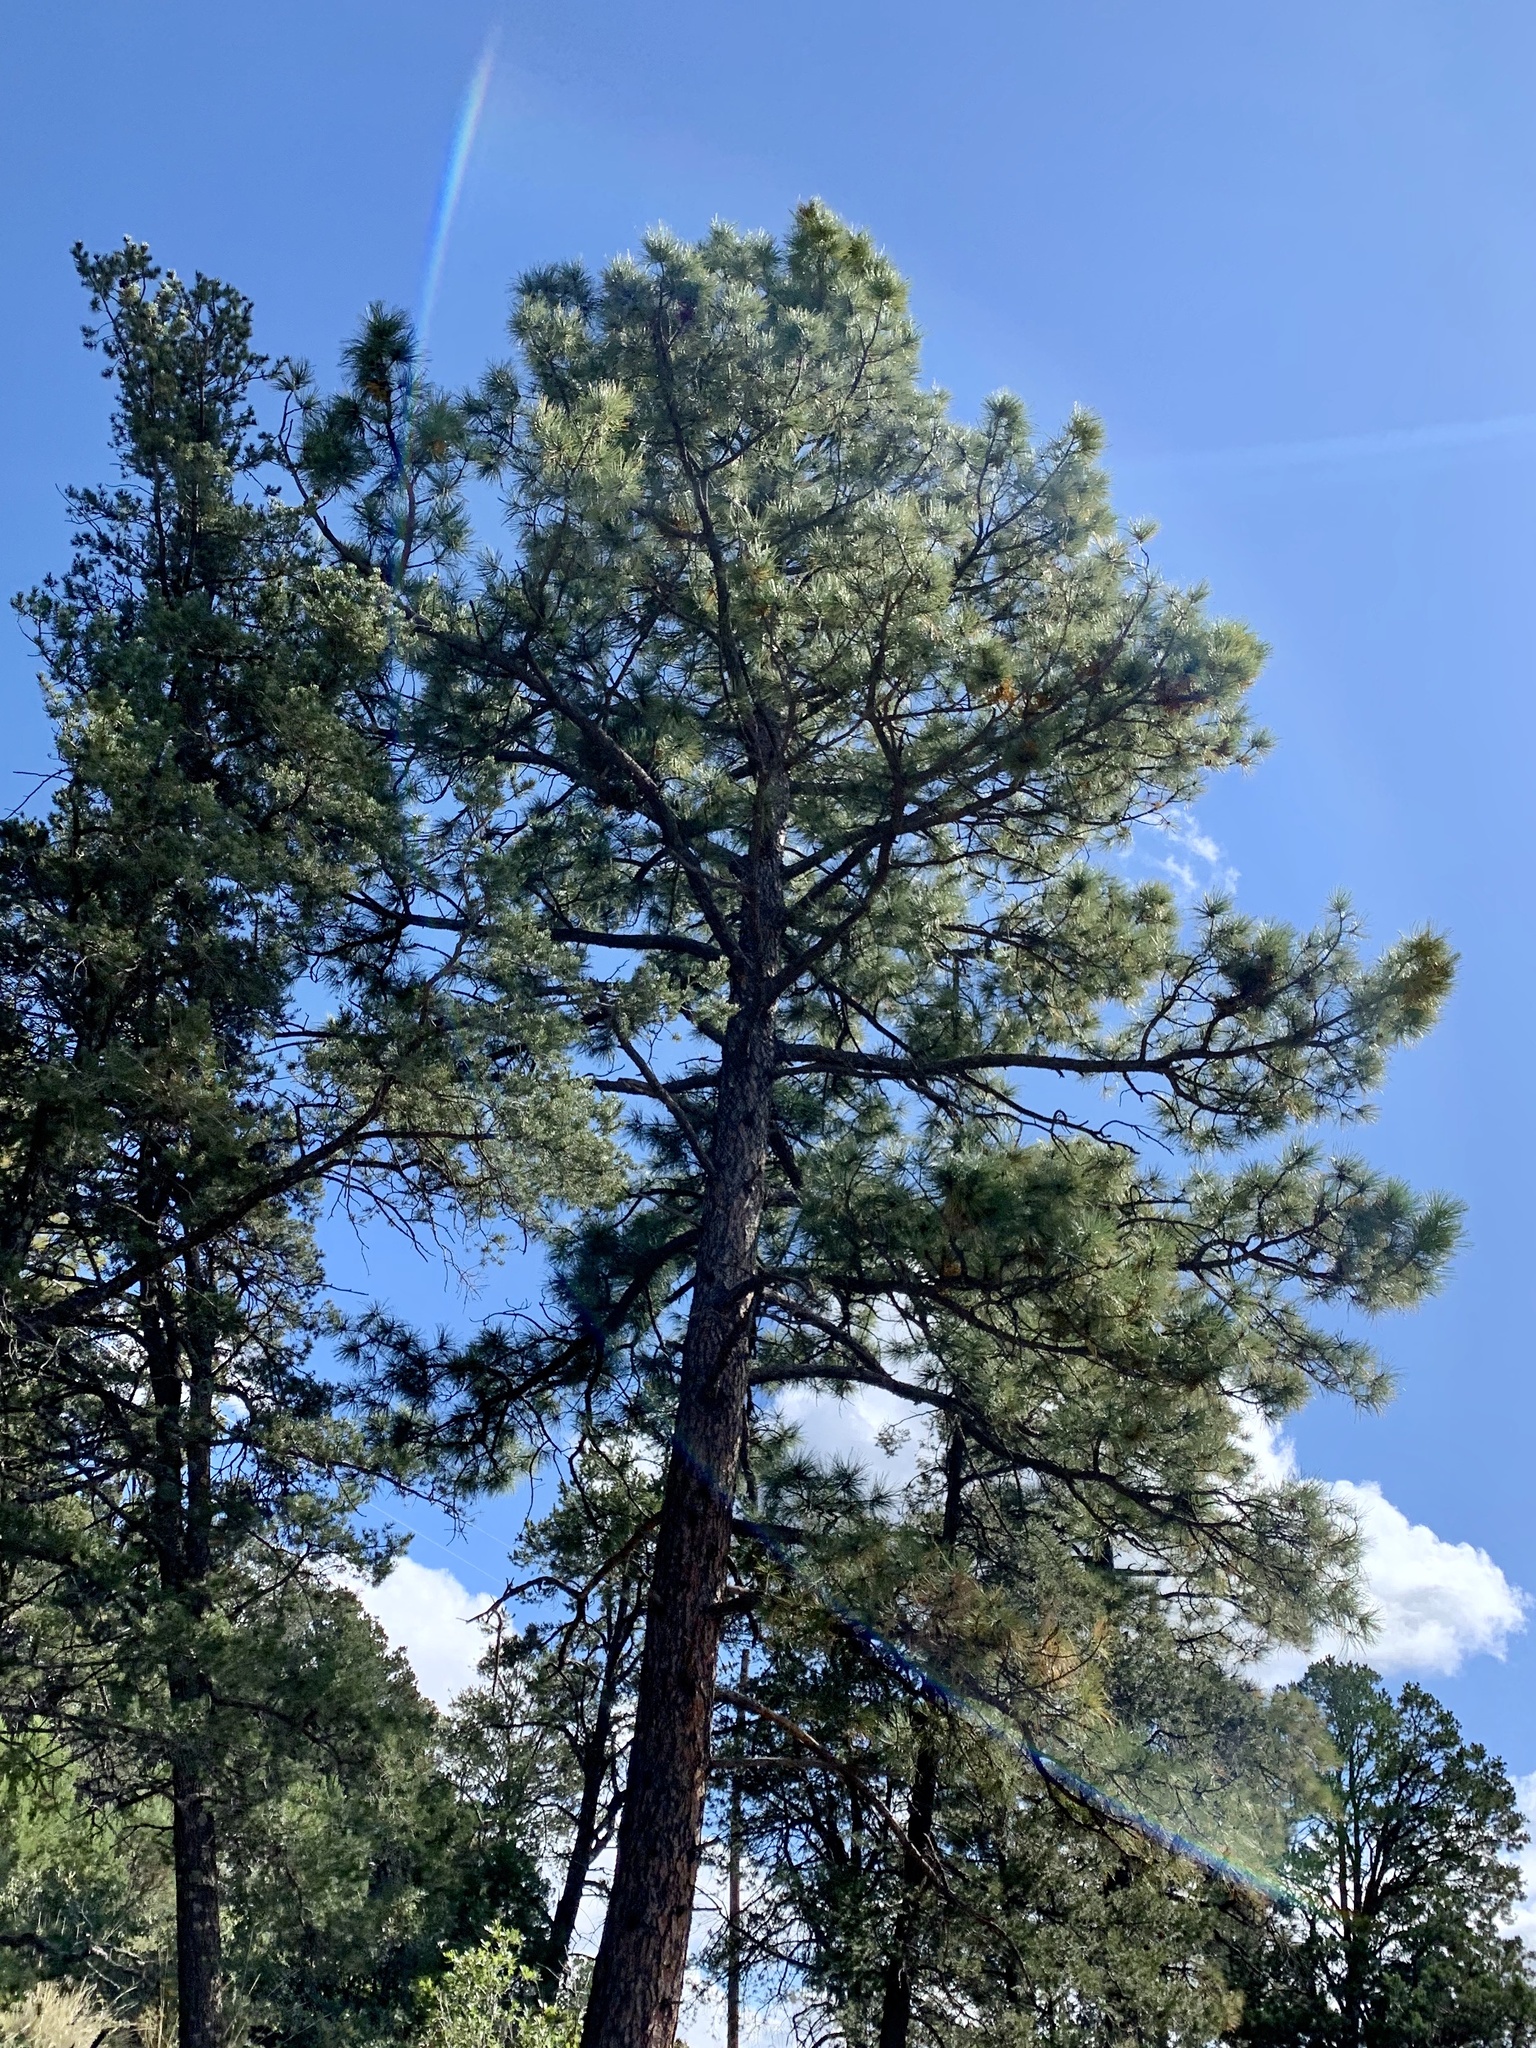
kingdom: Plantae
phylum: Tracheophyta
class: Pinopsida
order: Pinales
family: Pinaceae
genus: Pinus
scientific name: Pinus ponderosa
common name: Western yellow-pine
